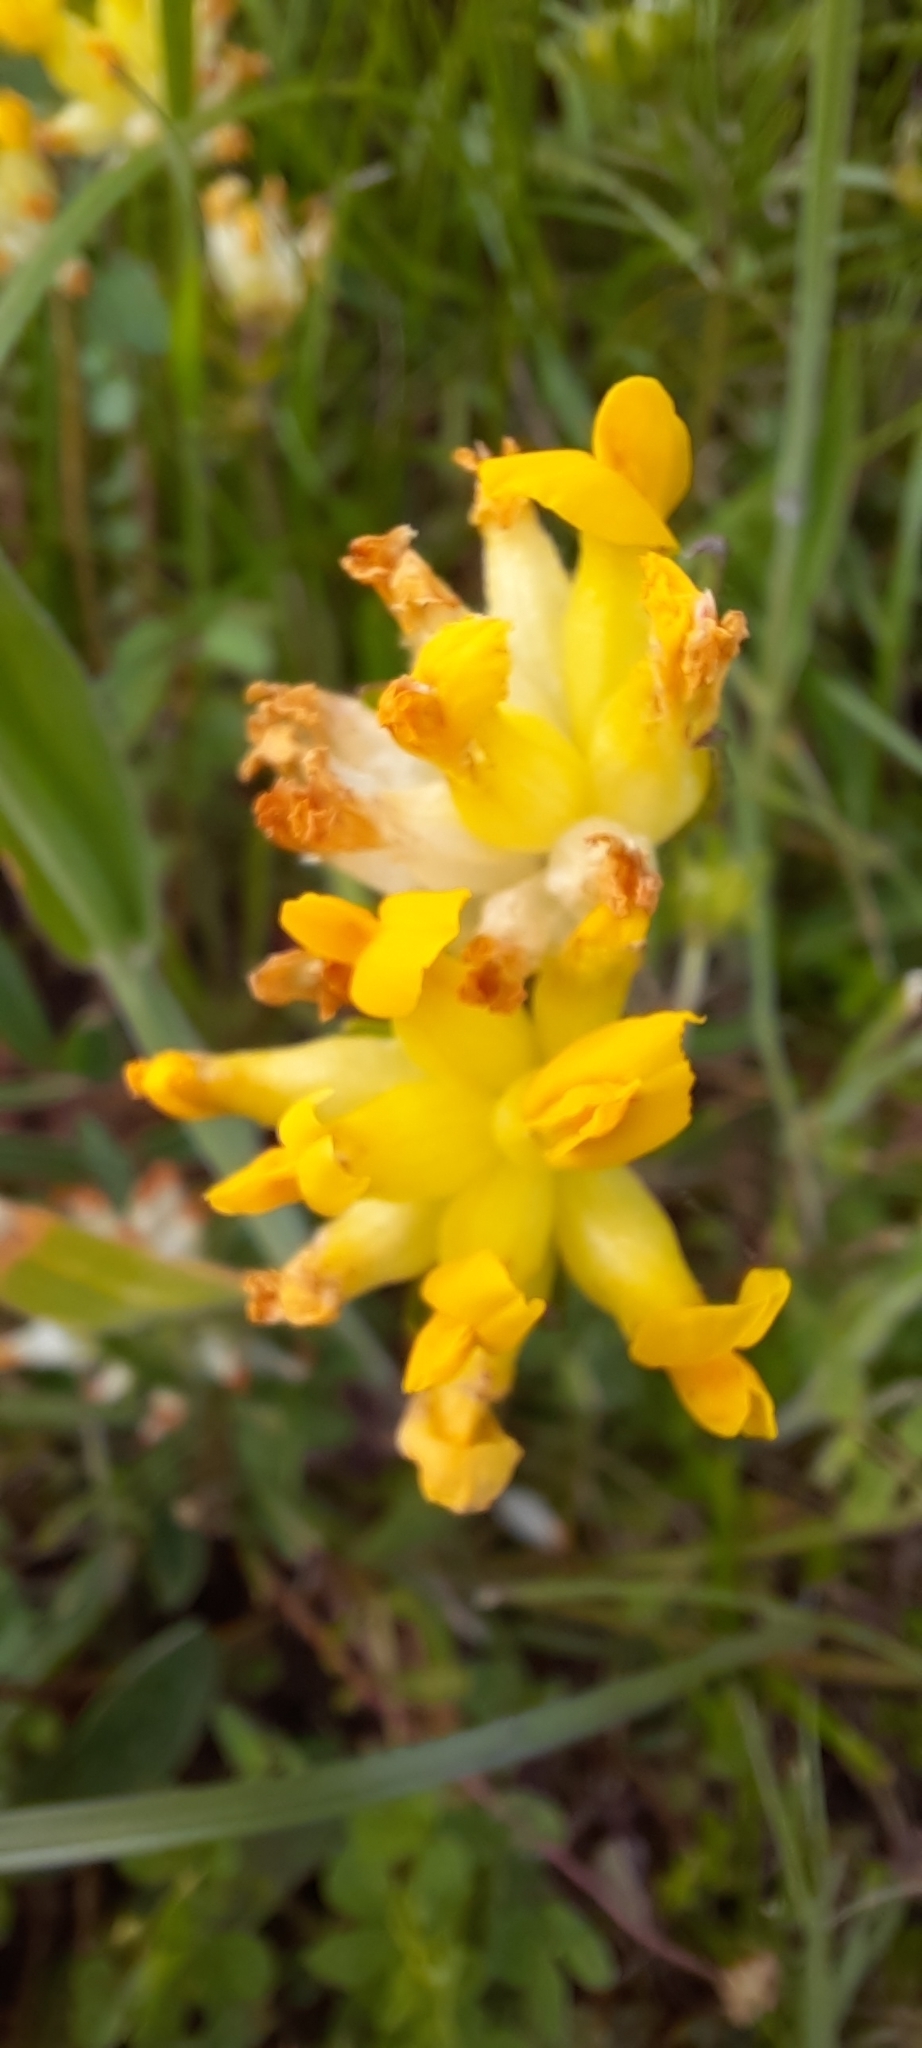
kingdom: Plantae
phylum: Tracheophyta
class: Magnoliopsida
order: Fabales
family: Fabaceae
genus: Anthyllis
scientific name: Anthyllis vulneraria
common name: Kidney vetch
